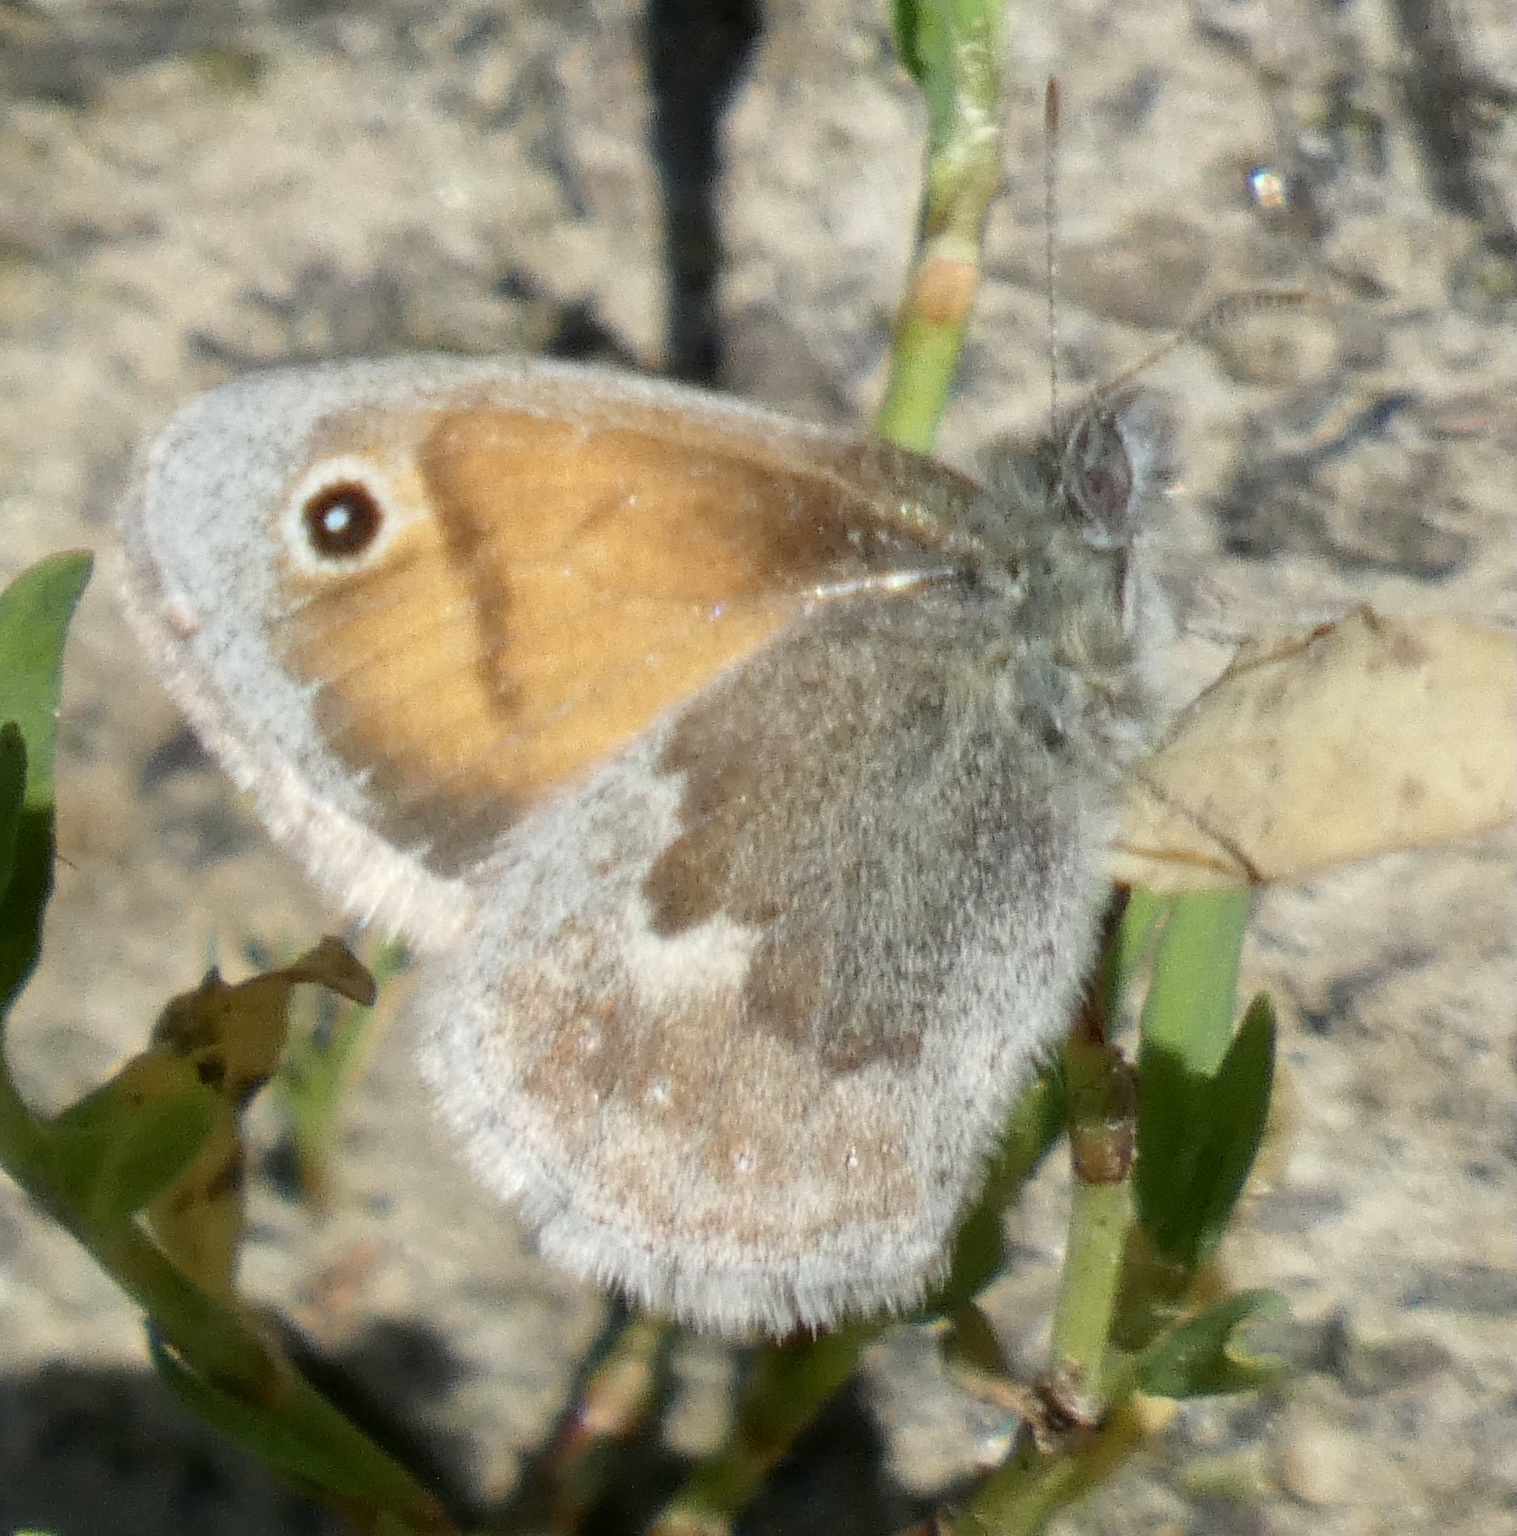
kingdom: Animalia
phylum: Arthropoda
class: Insecta
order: Lepidoptera
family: Nymphalidae
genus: Coenonympha
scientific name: Coenonympha pamphilus
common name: Small heath
